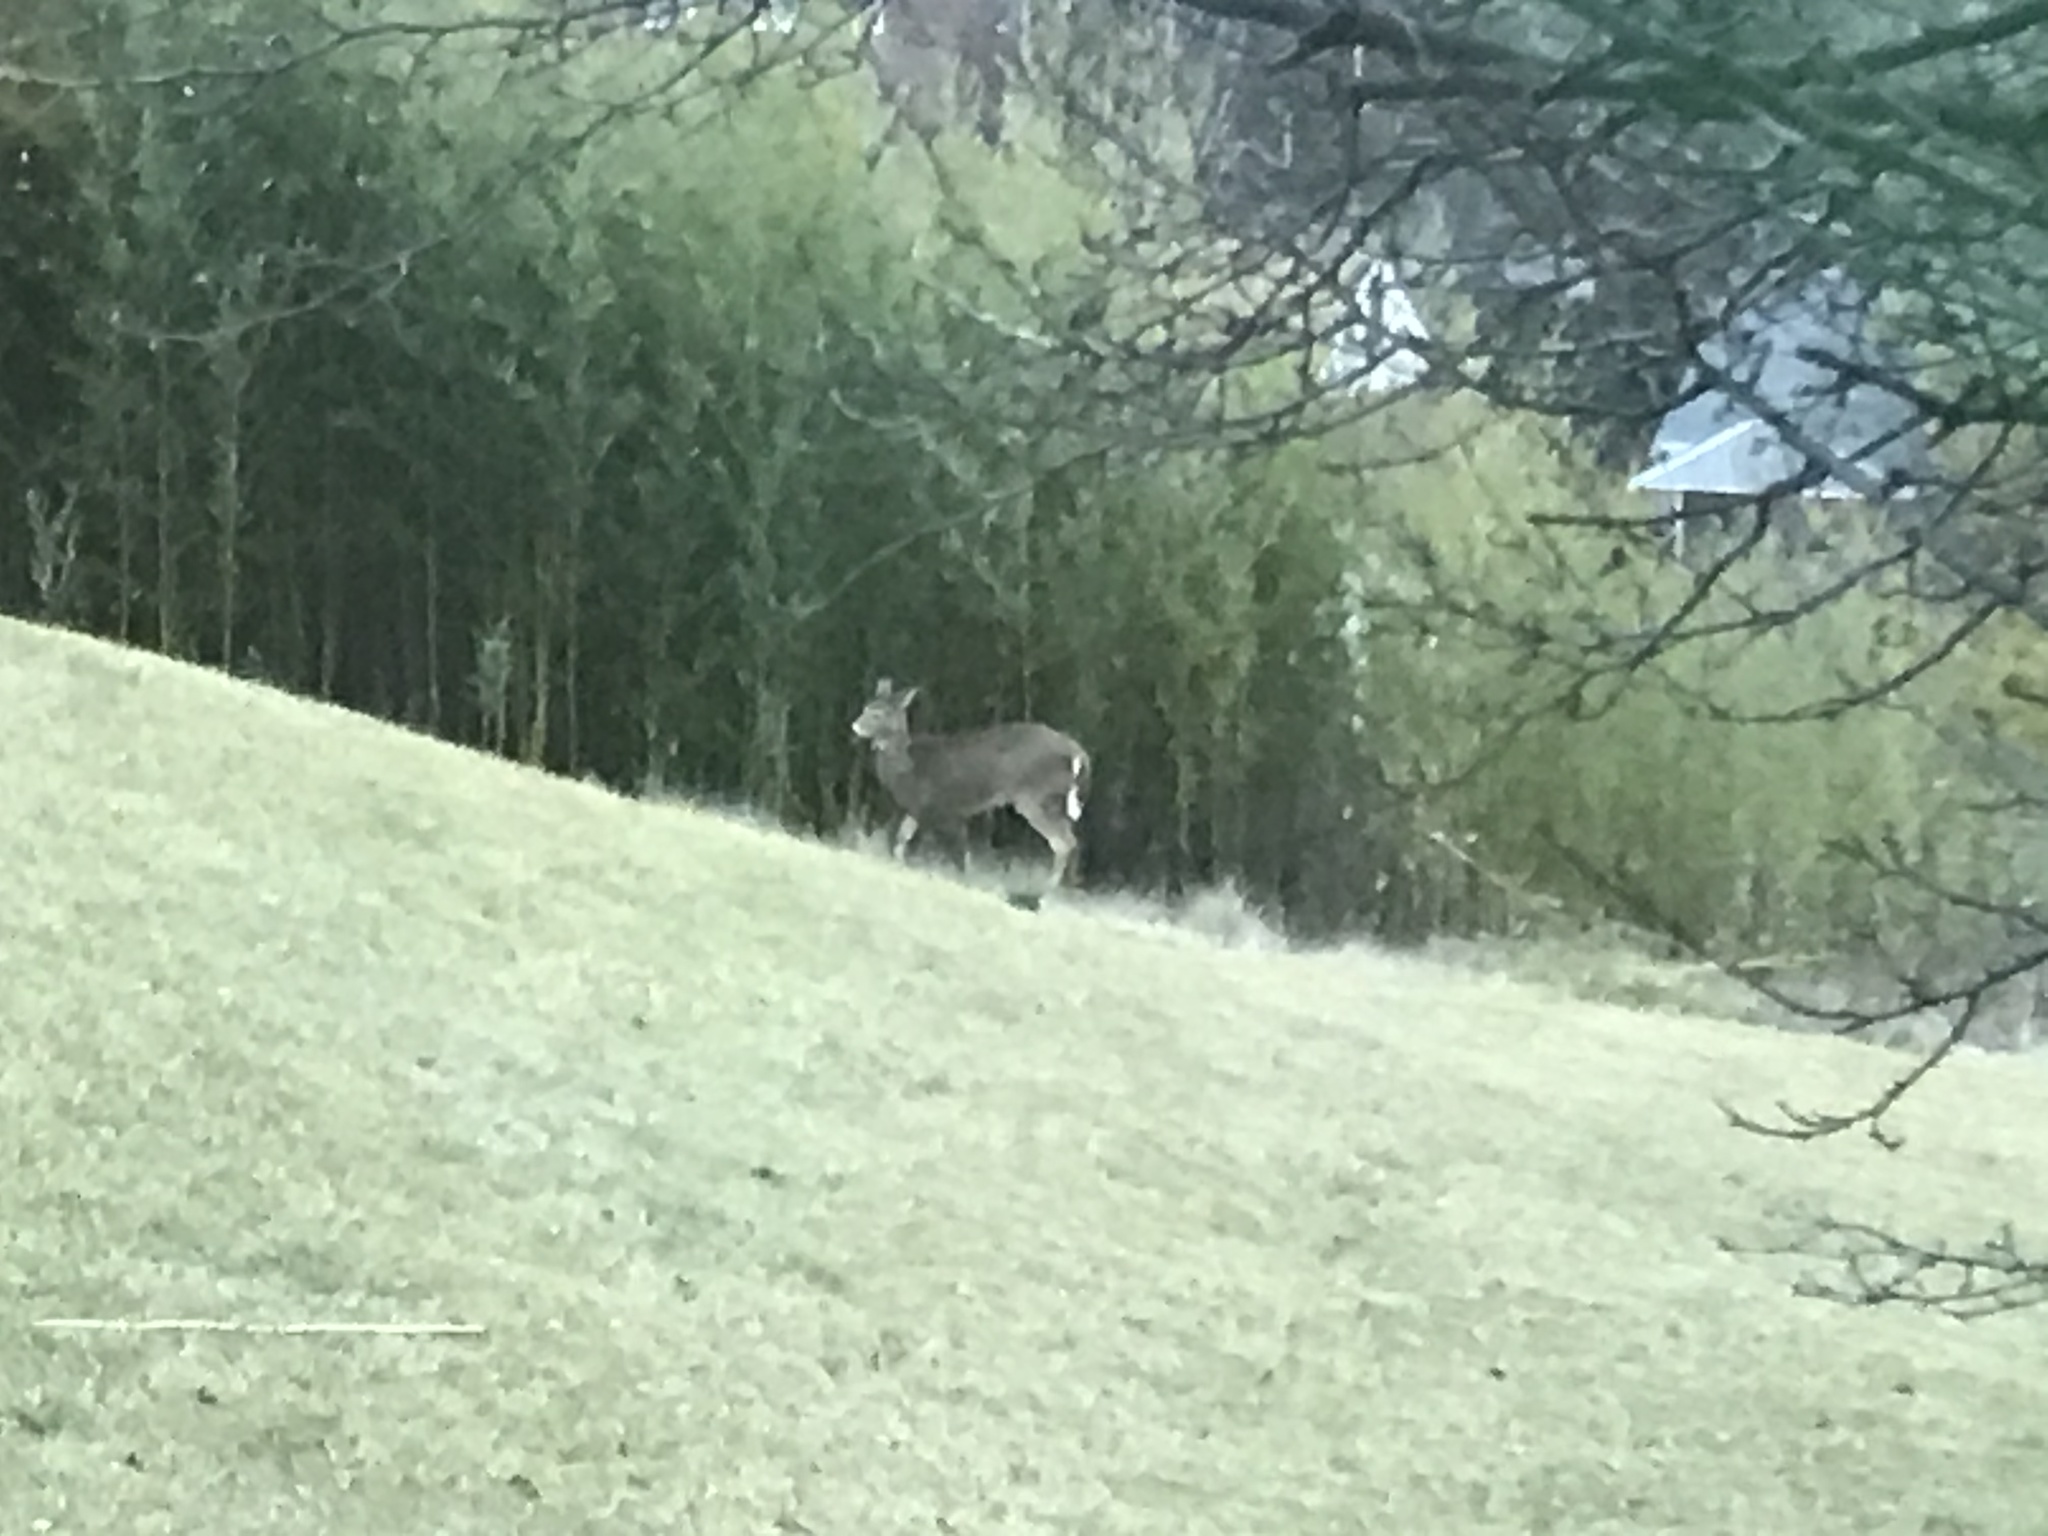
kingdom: Animalia
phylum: Chordata
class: Mammalia
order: Artiodactyla
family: Cervidae
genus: Odocoileus
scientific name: Odocoileus virginianus
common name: White-tailed deer
